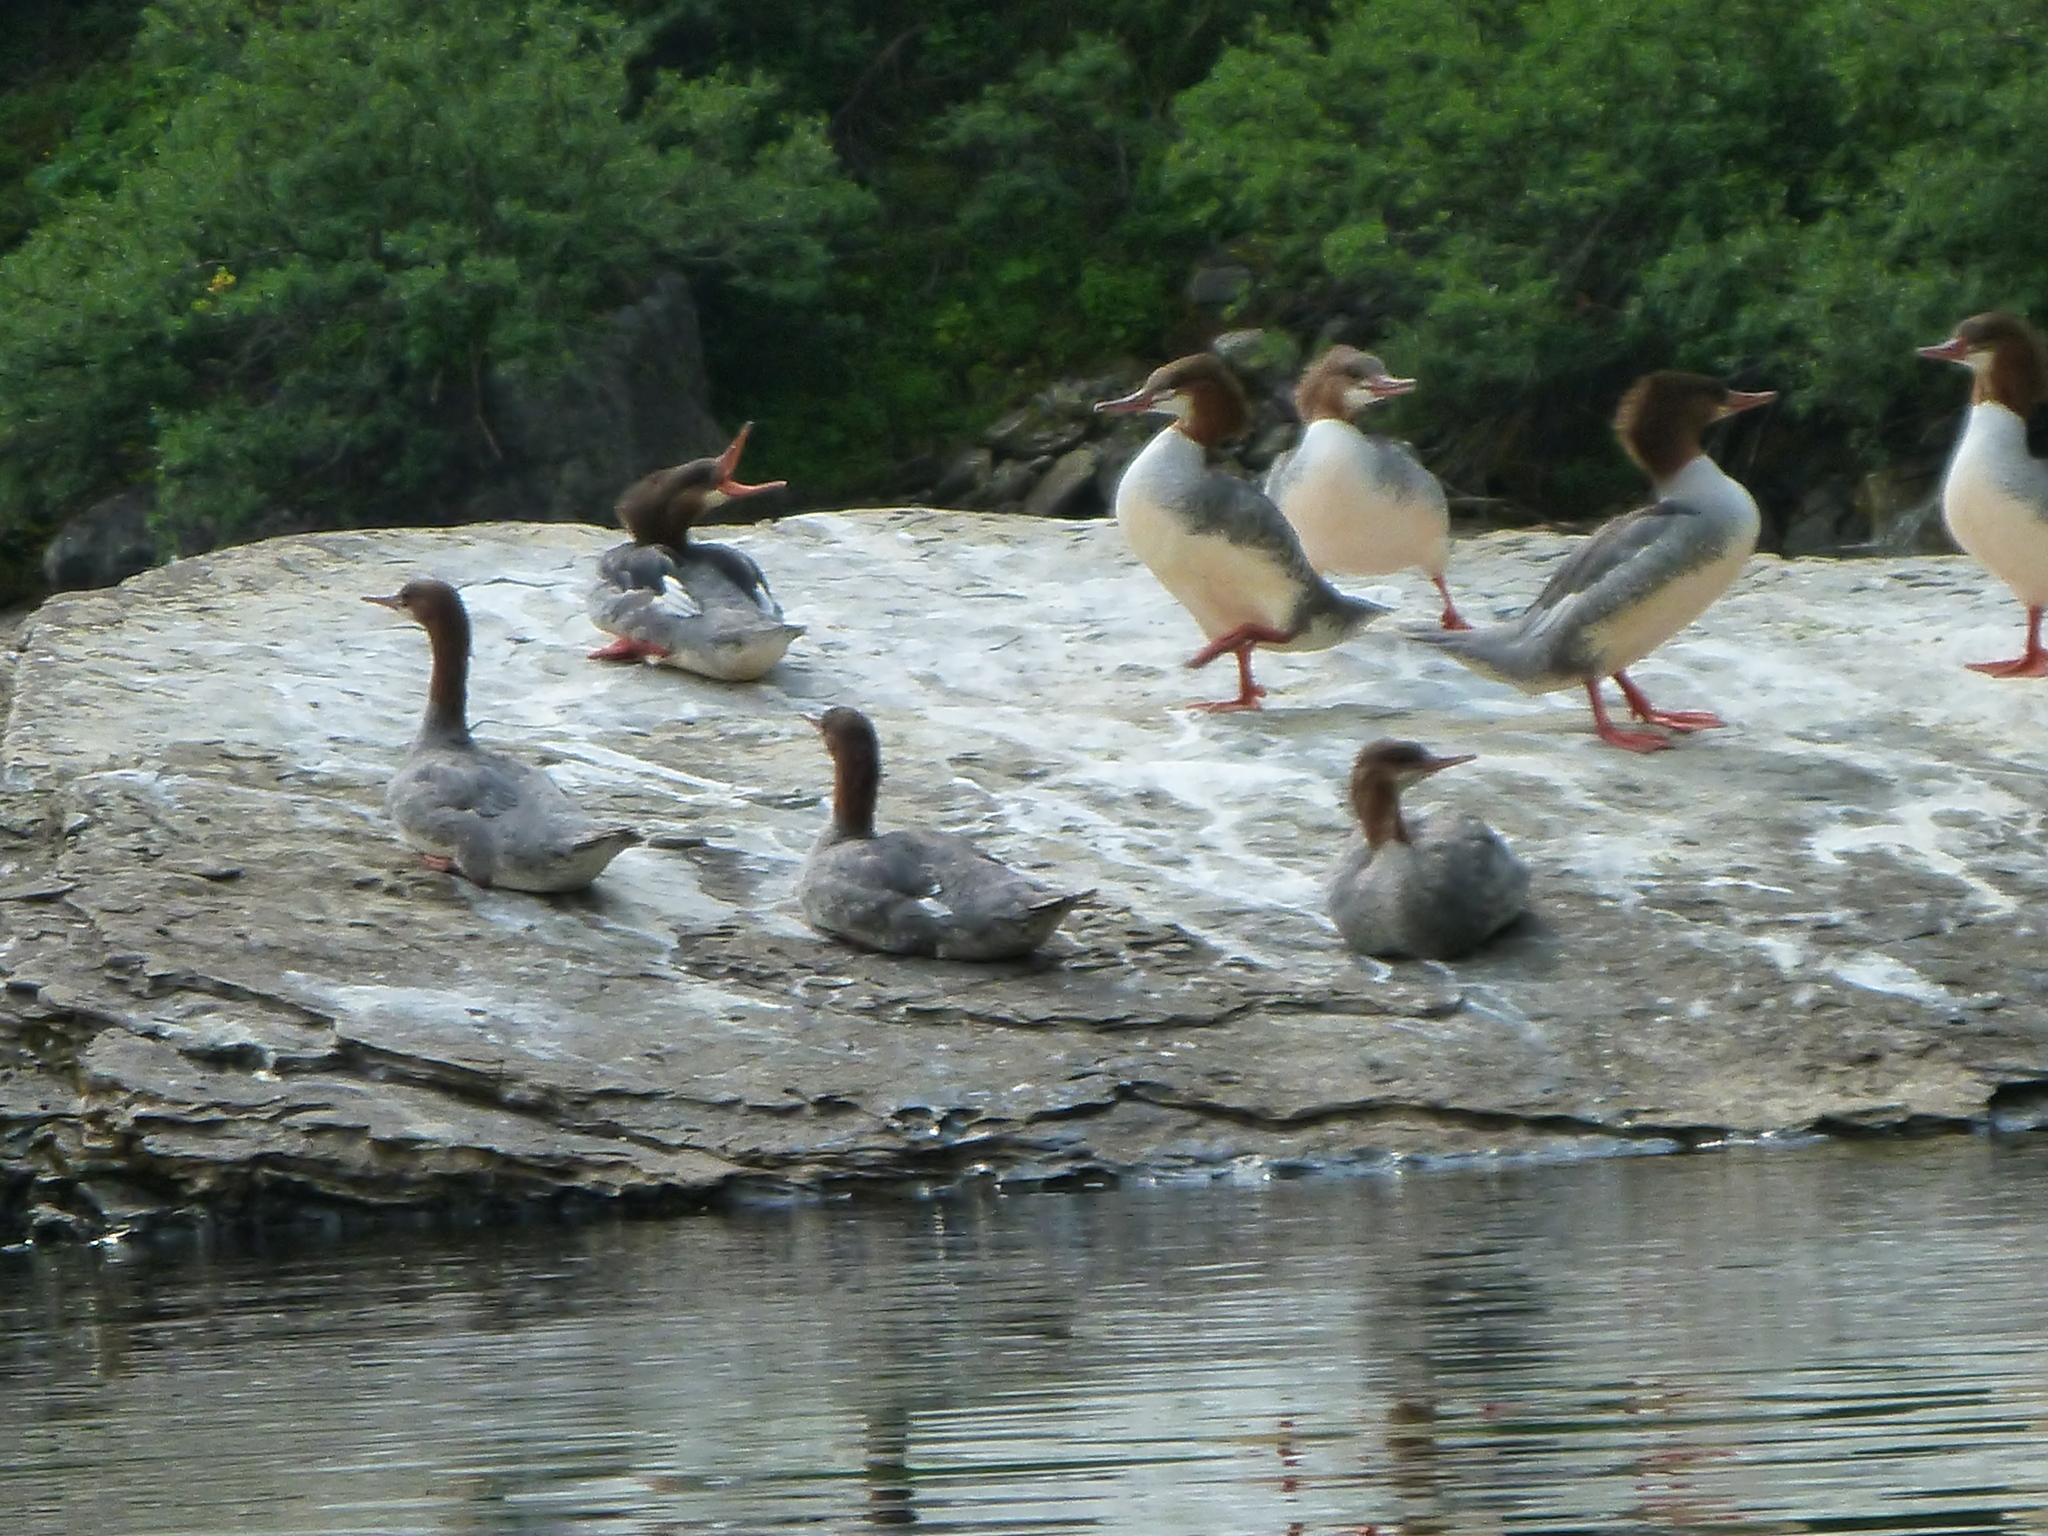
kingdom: Animalia
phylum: Chordata
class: Aves
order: Anseriformes
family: Anatidae
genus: Mergus
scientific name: Mergus merganser
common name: Common merganser
